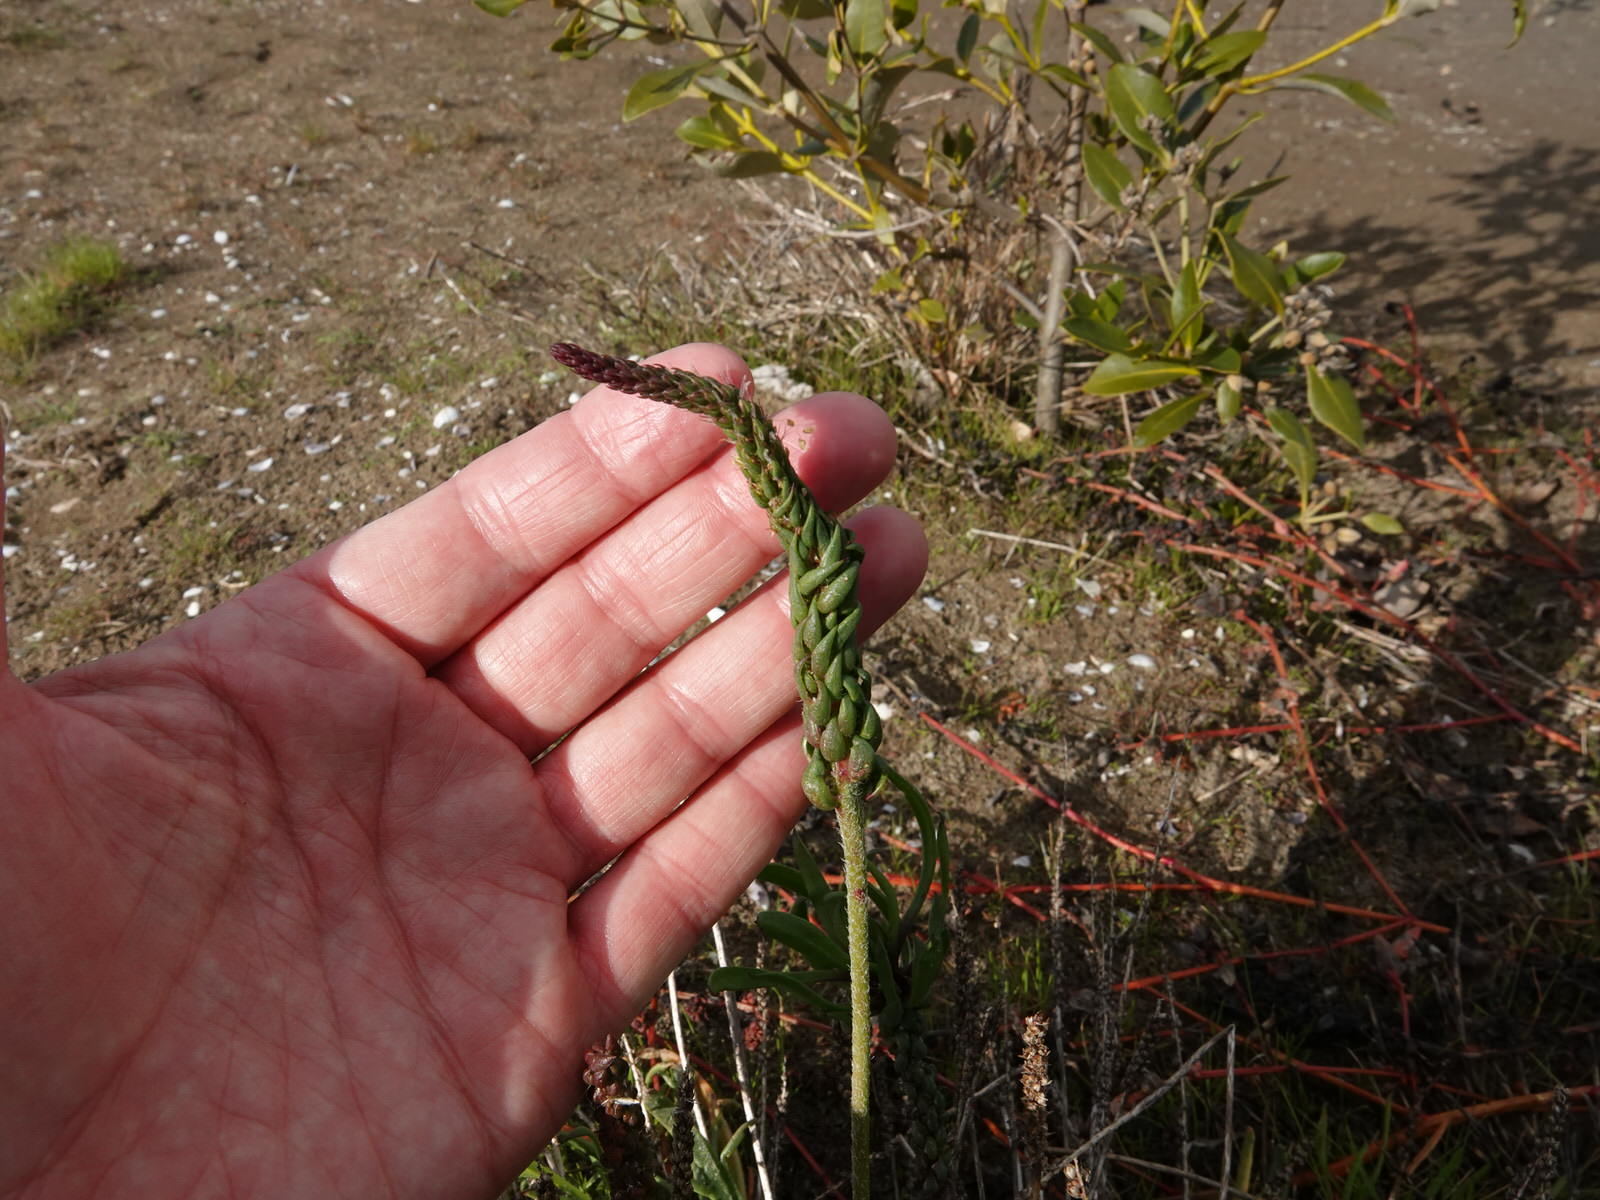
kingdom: Plantae
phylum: Tracheophyta
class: Magnoliopsida
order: Lamiales
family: Plantaginaceae
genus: Plantago
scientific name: Plantago coronopus
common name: Buck's-horn plantain
